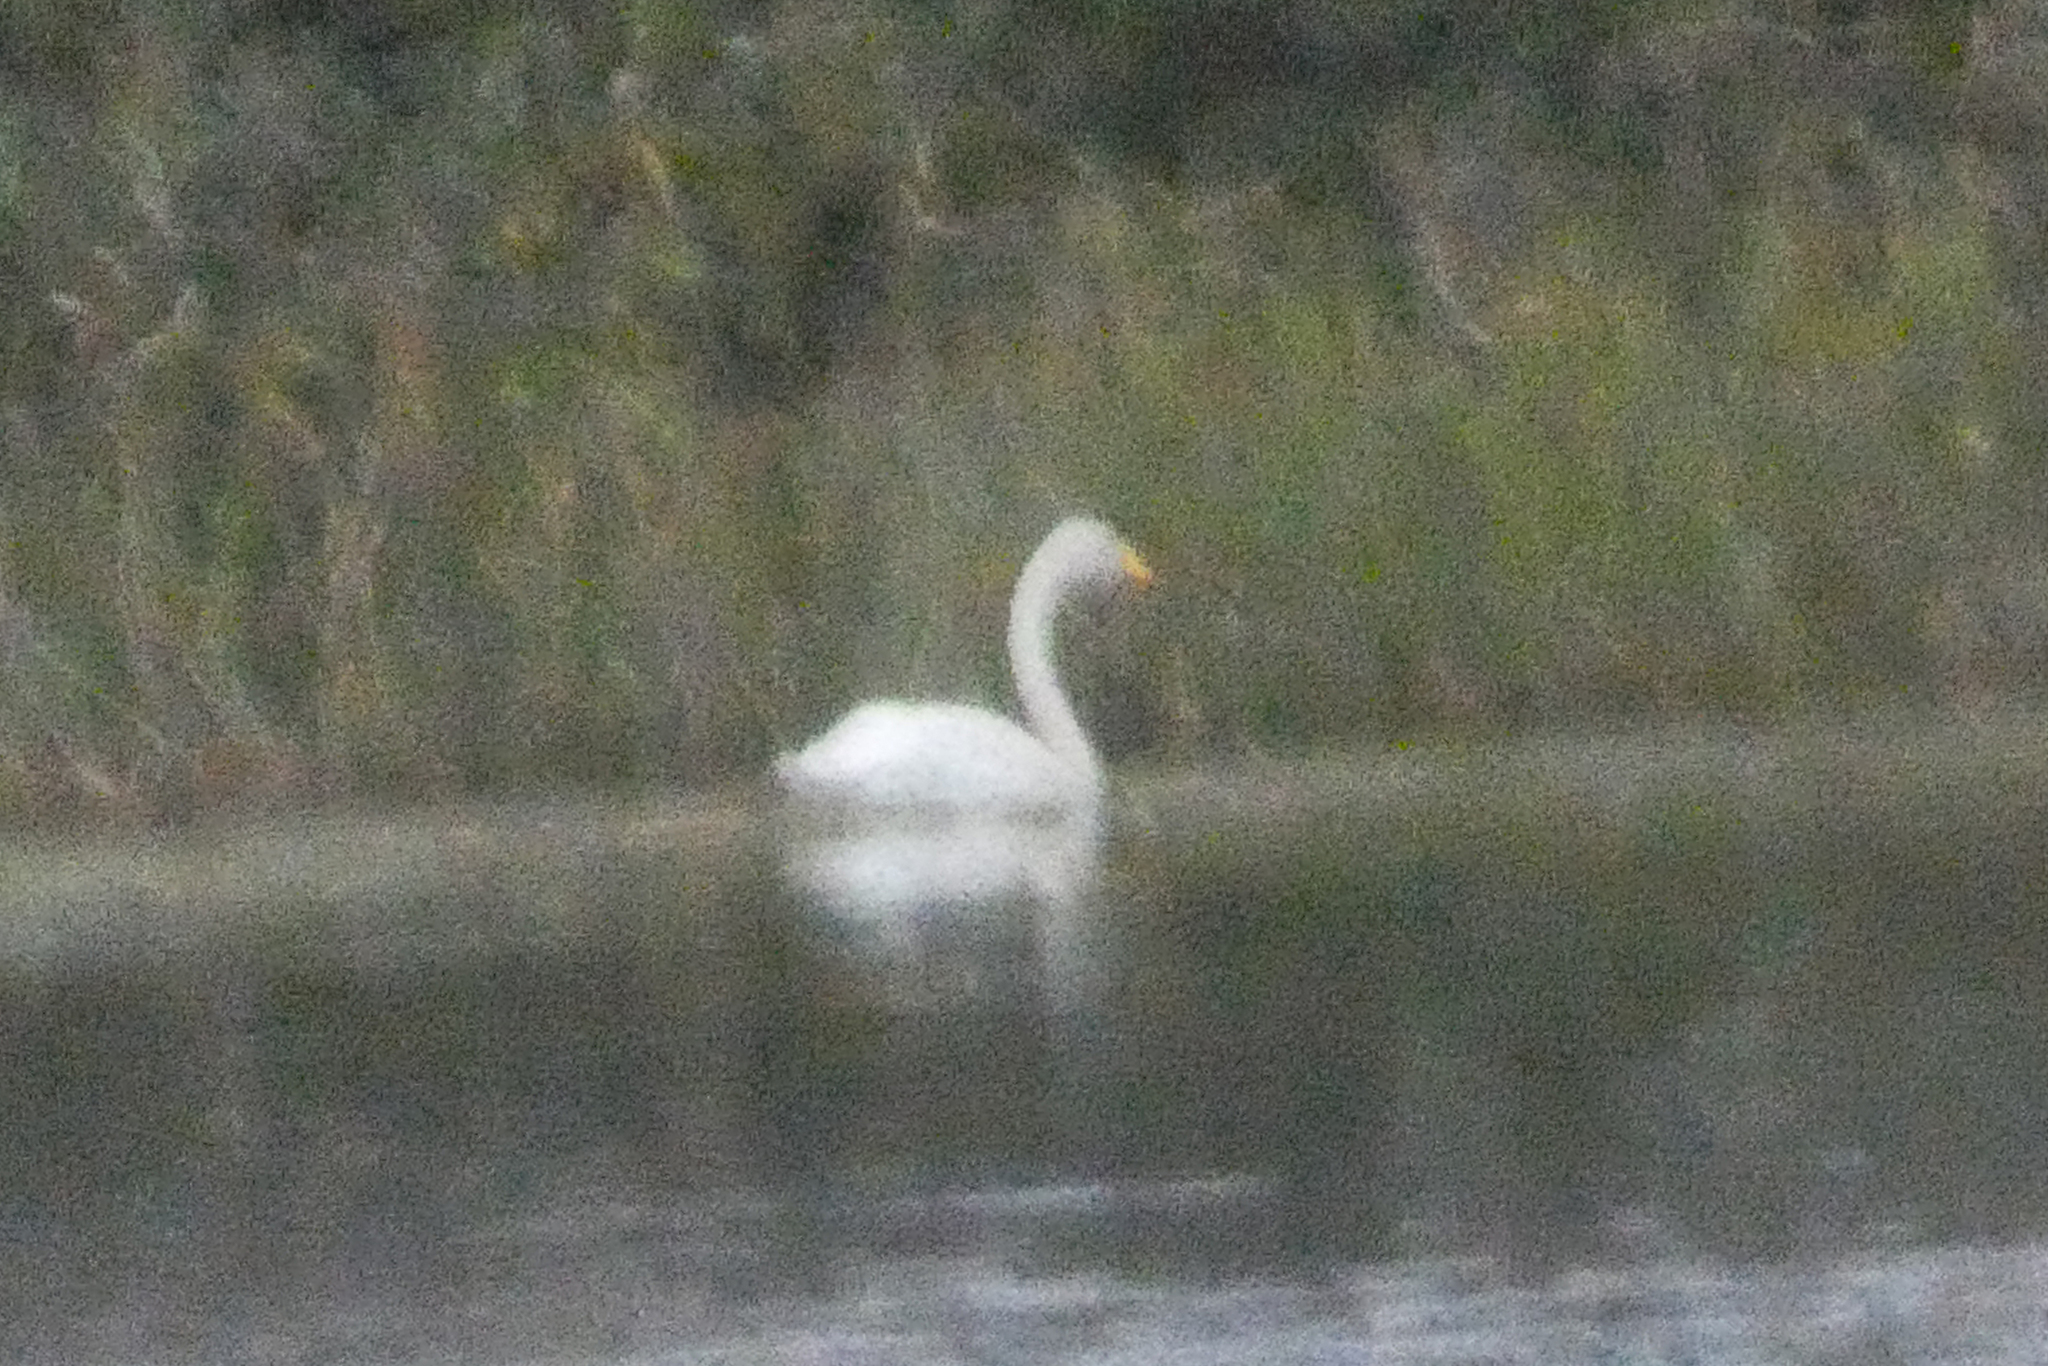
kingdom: Animalia
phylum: Chordata
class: Aves
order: Anseriformes
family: Anatidae
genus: Cygnus
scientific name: Cygnus cygnus
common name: Whooper swan
